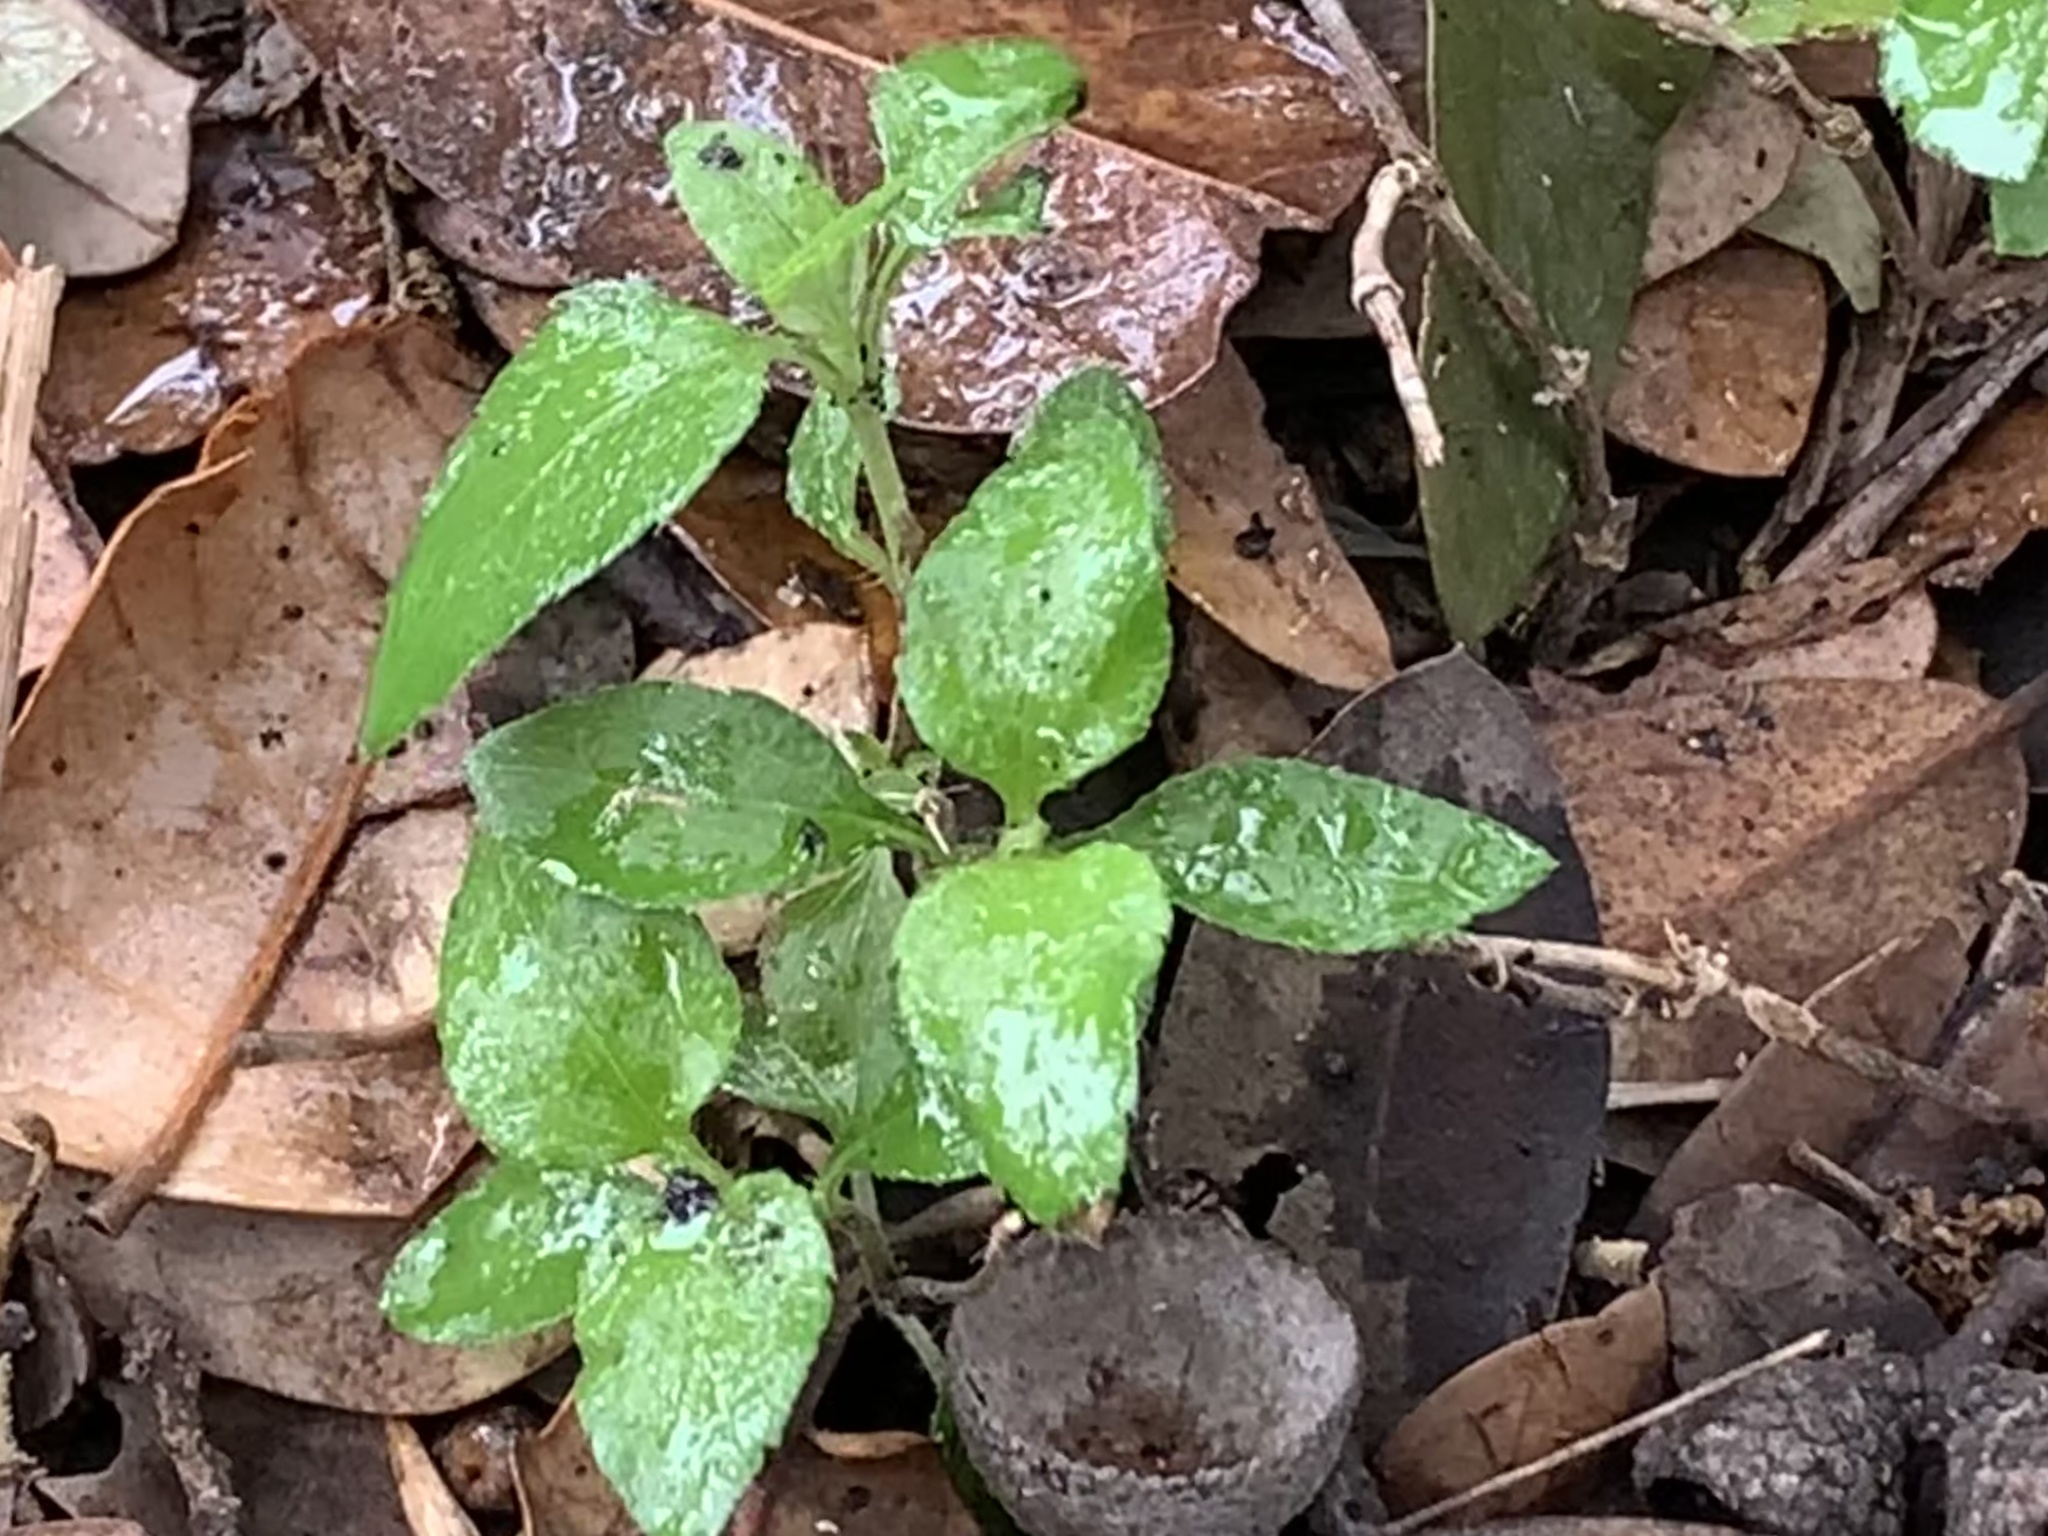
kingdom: Plantae
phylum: Tracheophyta
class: Magnoliopsida
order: Asterales
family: Asteraceae
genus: Calyptocarpus
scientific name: Calyptocarpus vialis
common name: Straggler daisy
